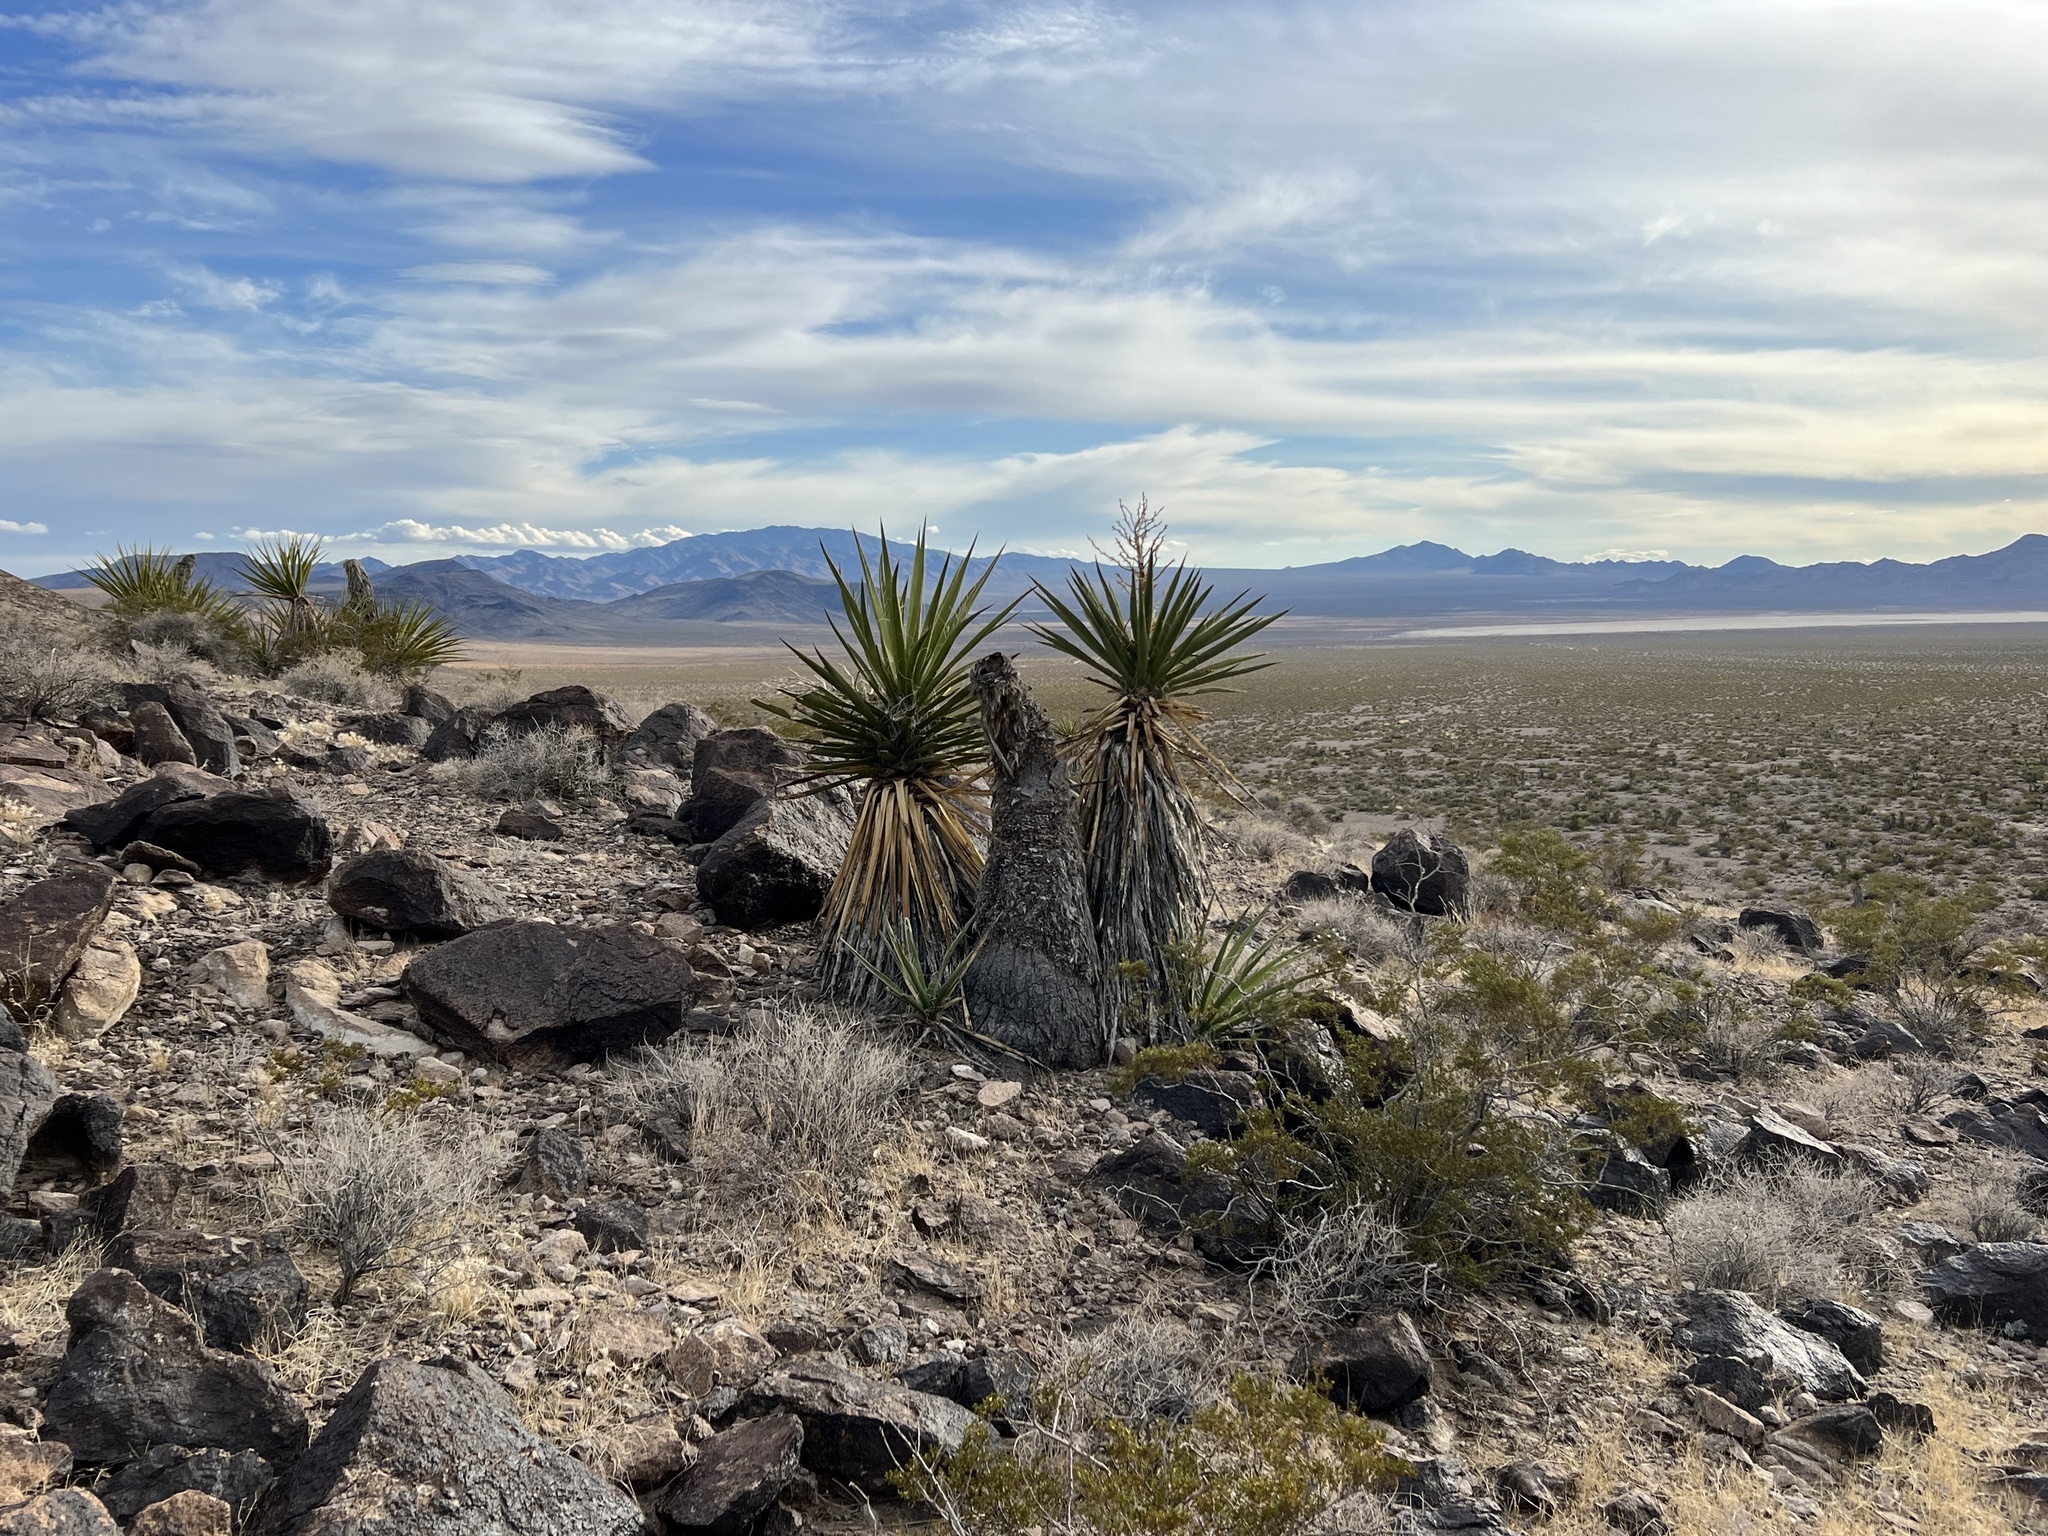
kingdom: Plantae
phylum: Tracheophyta
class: Liliopsida
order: Asparagales
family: Asparagaceae
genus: Yucca
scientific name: Yucca schidigera
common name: Mojave yucca
